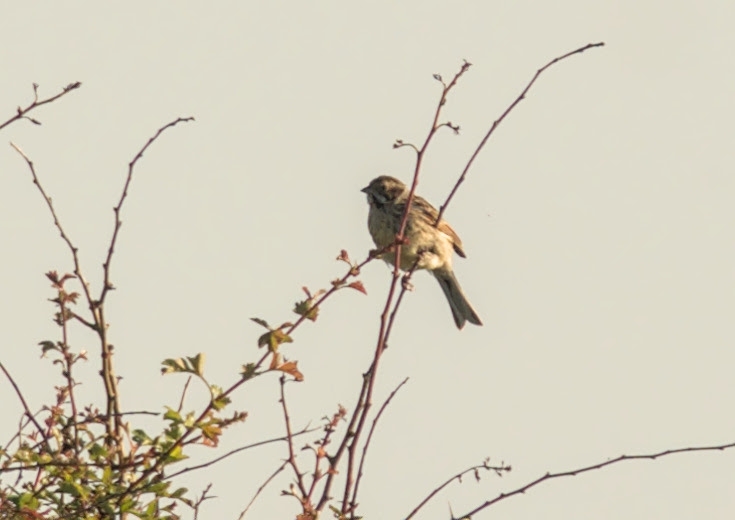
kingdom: Animalia
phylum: Chordata
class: Aves
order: Passeriformes
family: Emberizidae
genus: Emberiza
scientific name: Emberiza schoeniclus
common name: Reed bunting
